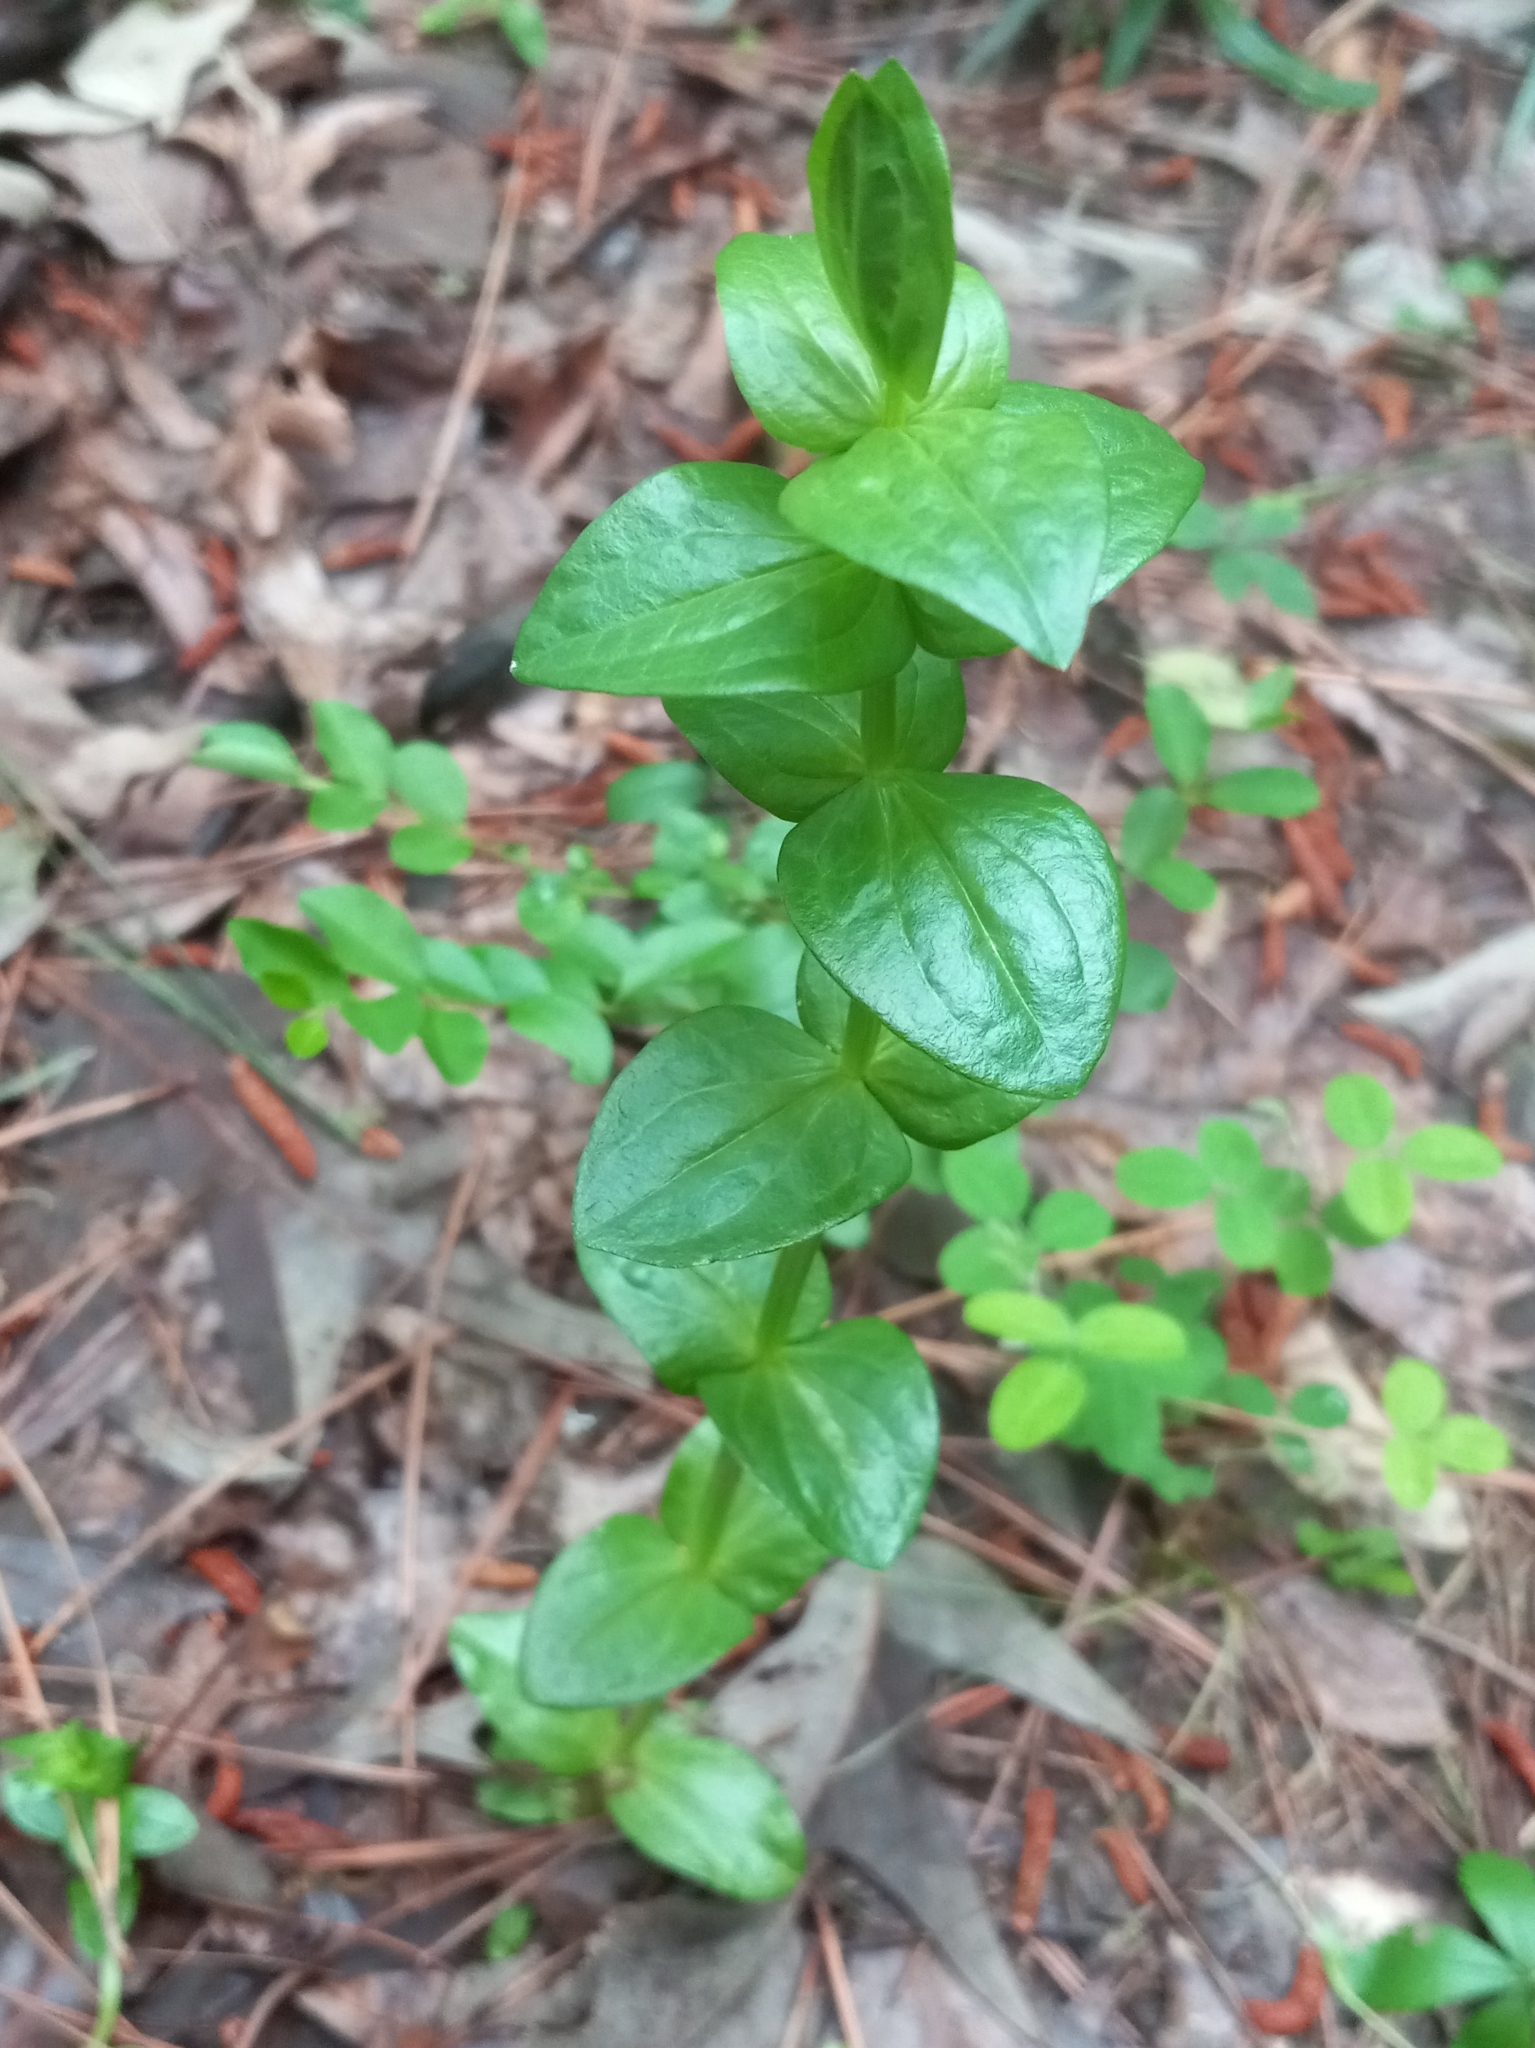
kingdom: Plantae
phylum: Tracheophyta
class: Magnoliopsida
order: Gentianales
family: Gentianaceae
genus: Sabatia
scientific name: Sabatia angularis
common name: Rose-pink
